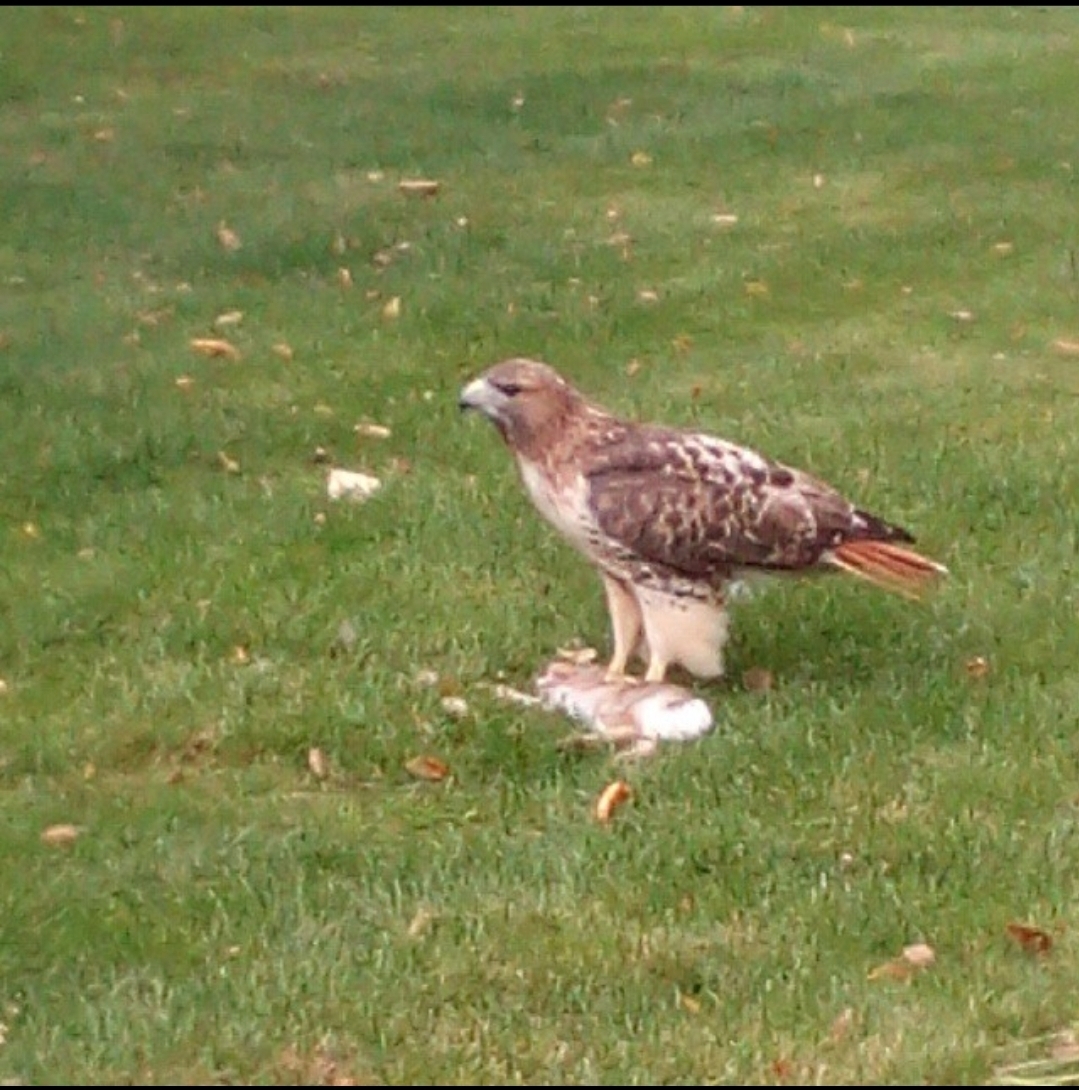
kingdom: Animalia
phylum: Chordata
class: Aves
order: Accipitriformes
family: Accipitridae
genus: Buteo
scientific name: Buteo jamaicensis
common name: Red-tailed hawk
